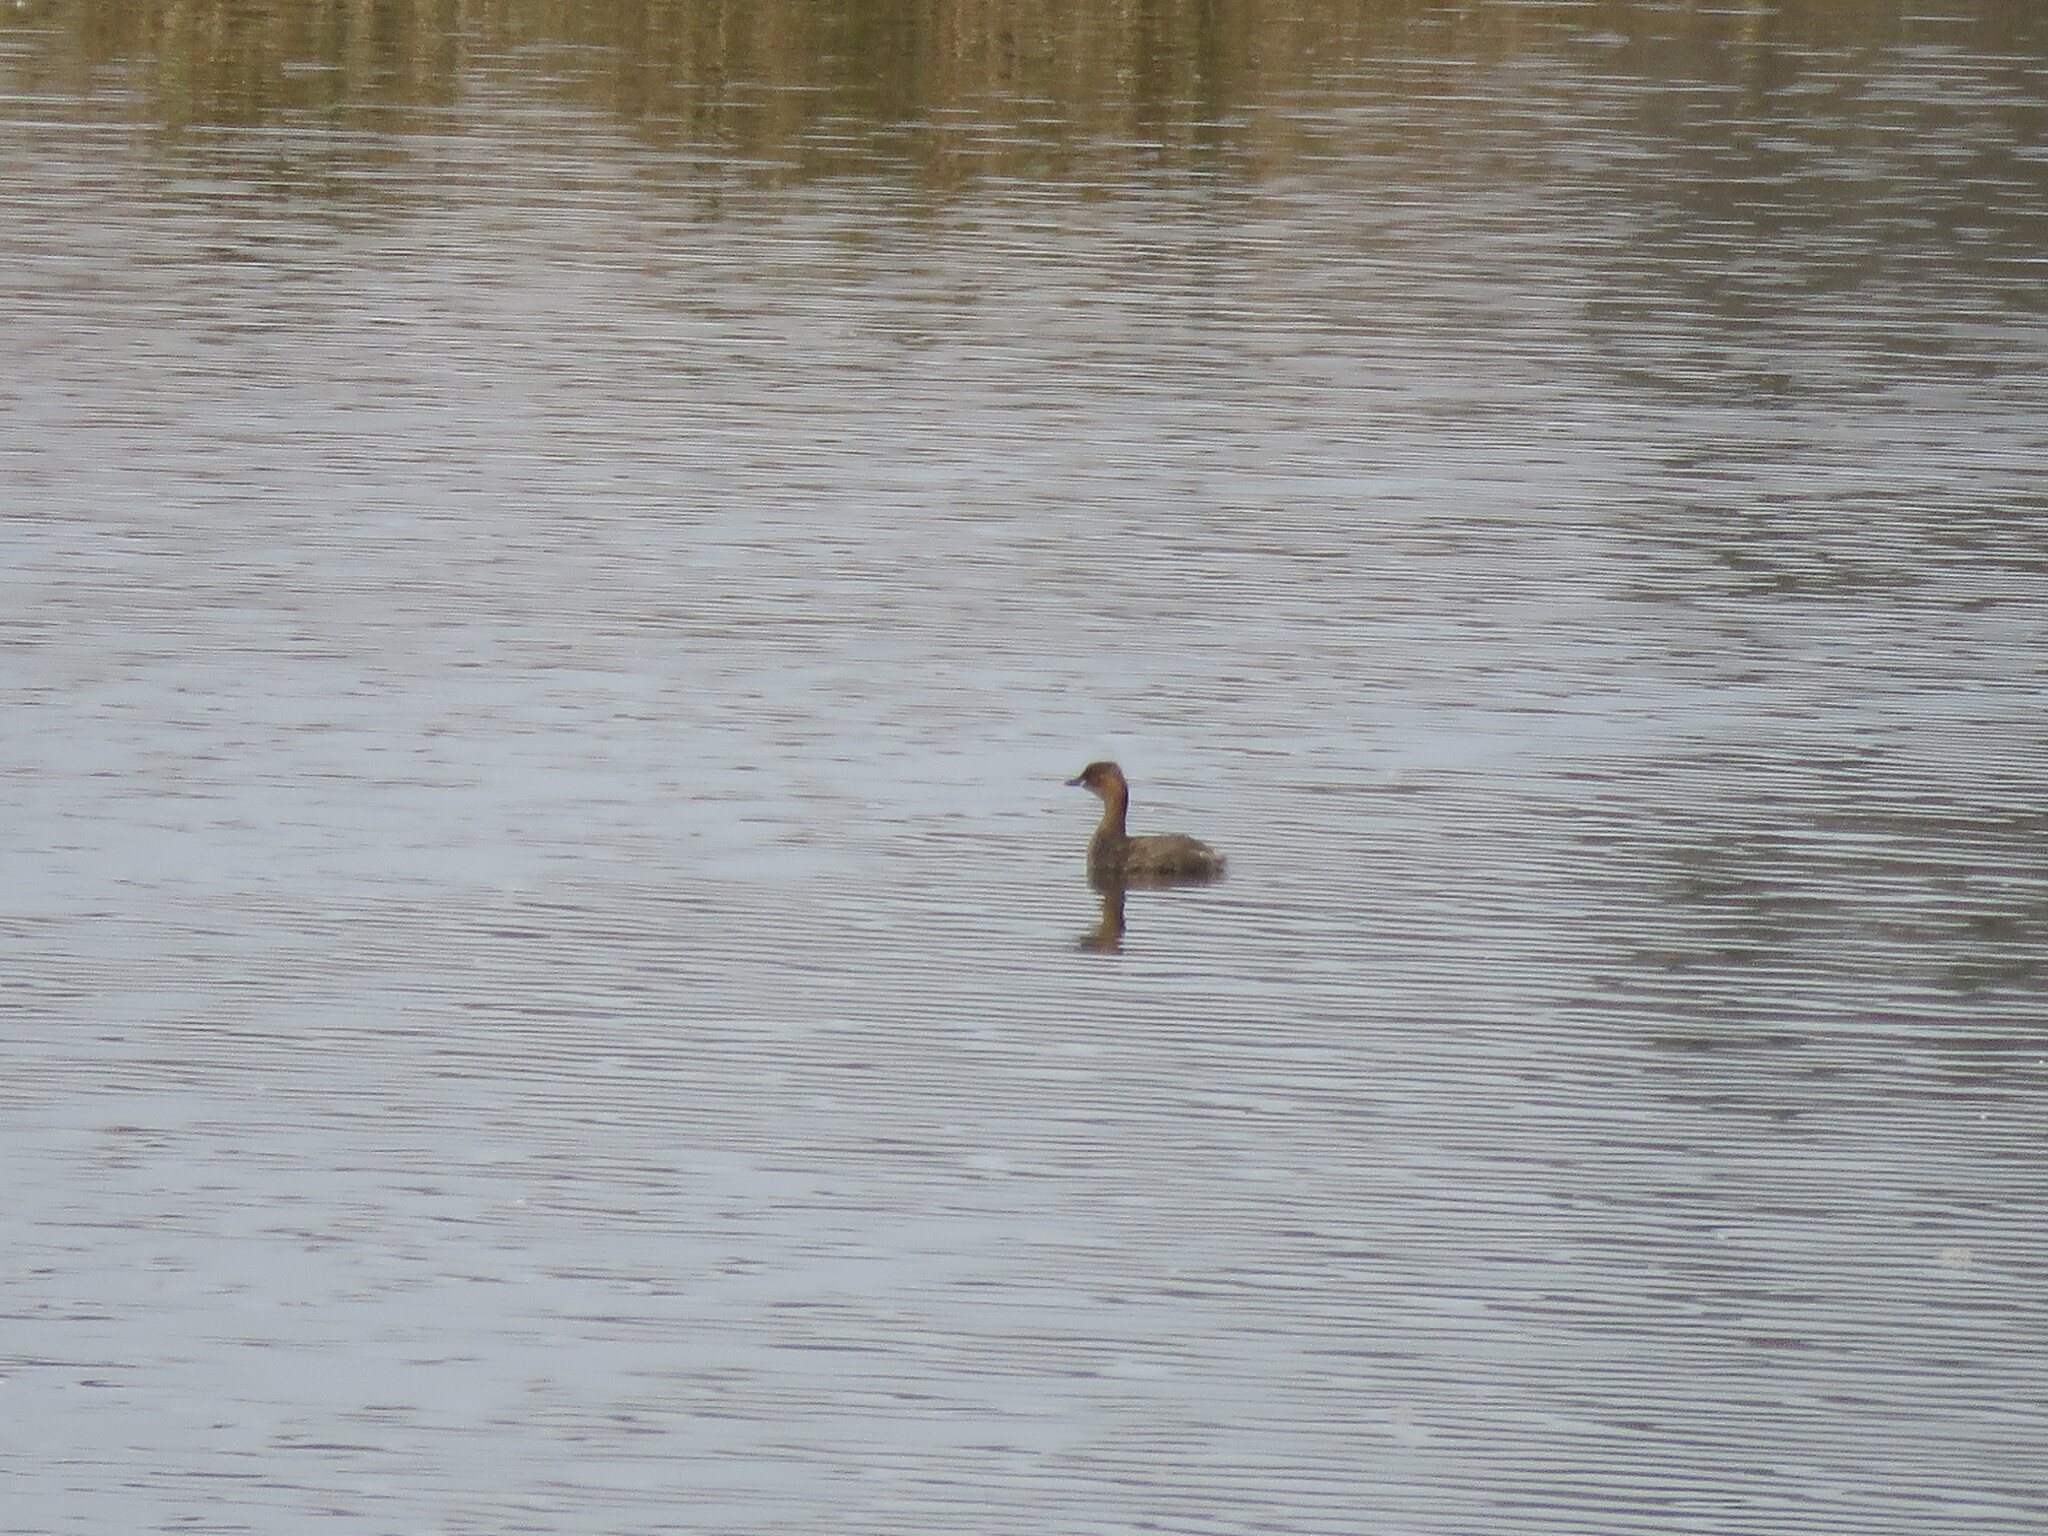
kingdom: Animalia
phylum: Chordata
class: Aves
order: Podicipediformes
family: Podicipedidae
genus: Tachybaptus
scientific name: Tachybaptus ruficollis
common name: Little grebe
